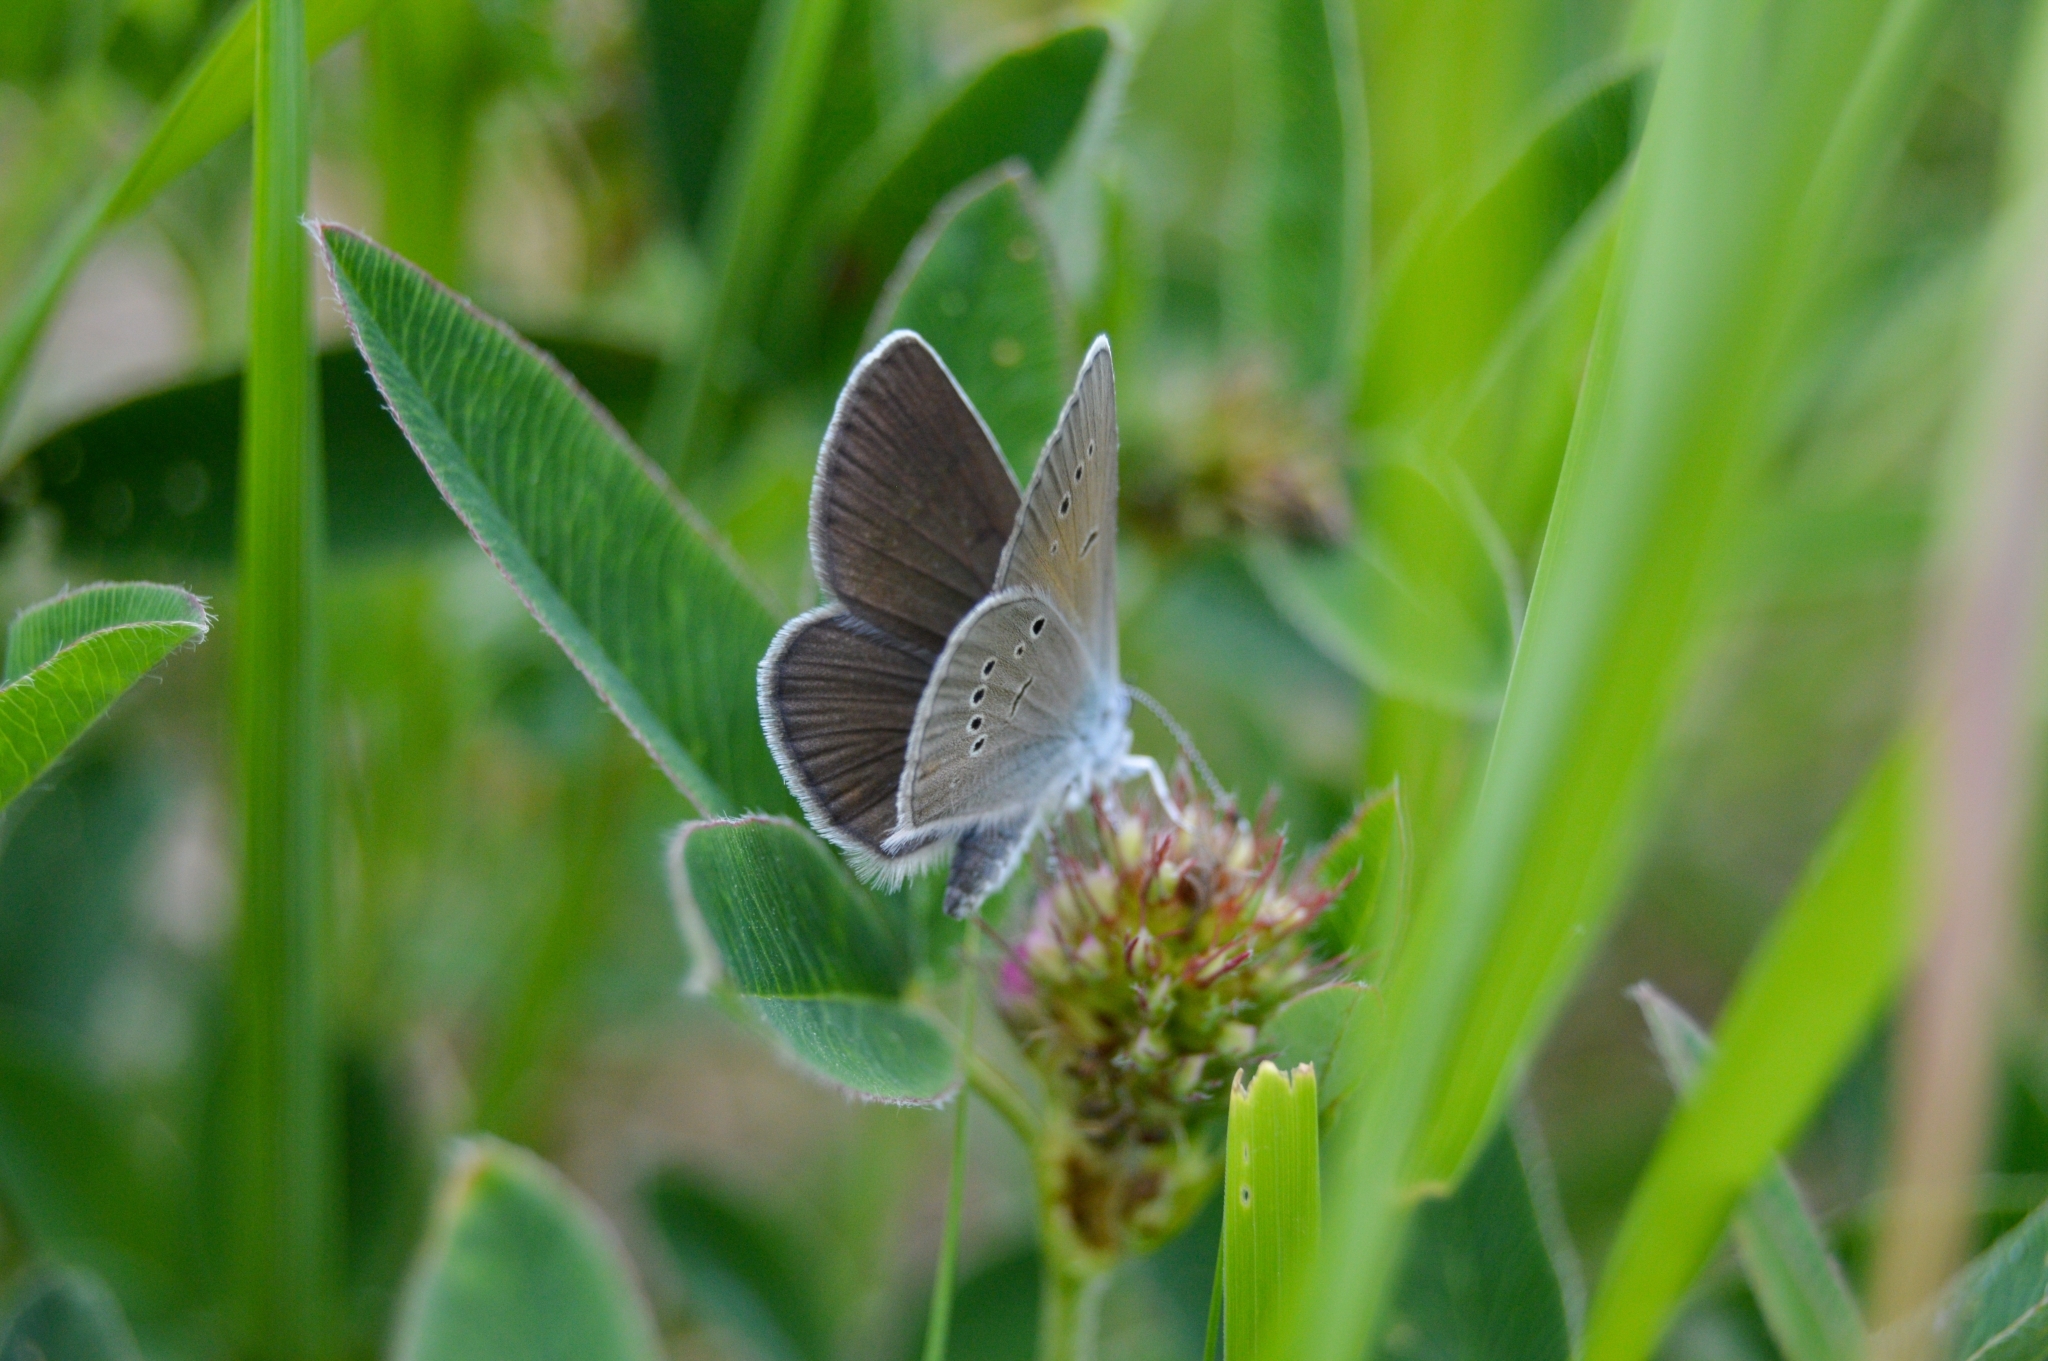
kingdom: Animalia
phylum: Arthropoda
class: Insecta
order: Lepidoptera
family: Lycaenidae
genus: Cyaniris
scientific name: Cyaniris semiargus
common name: Mazarine blue
